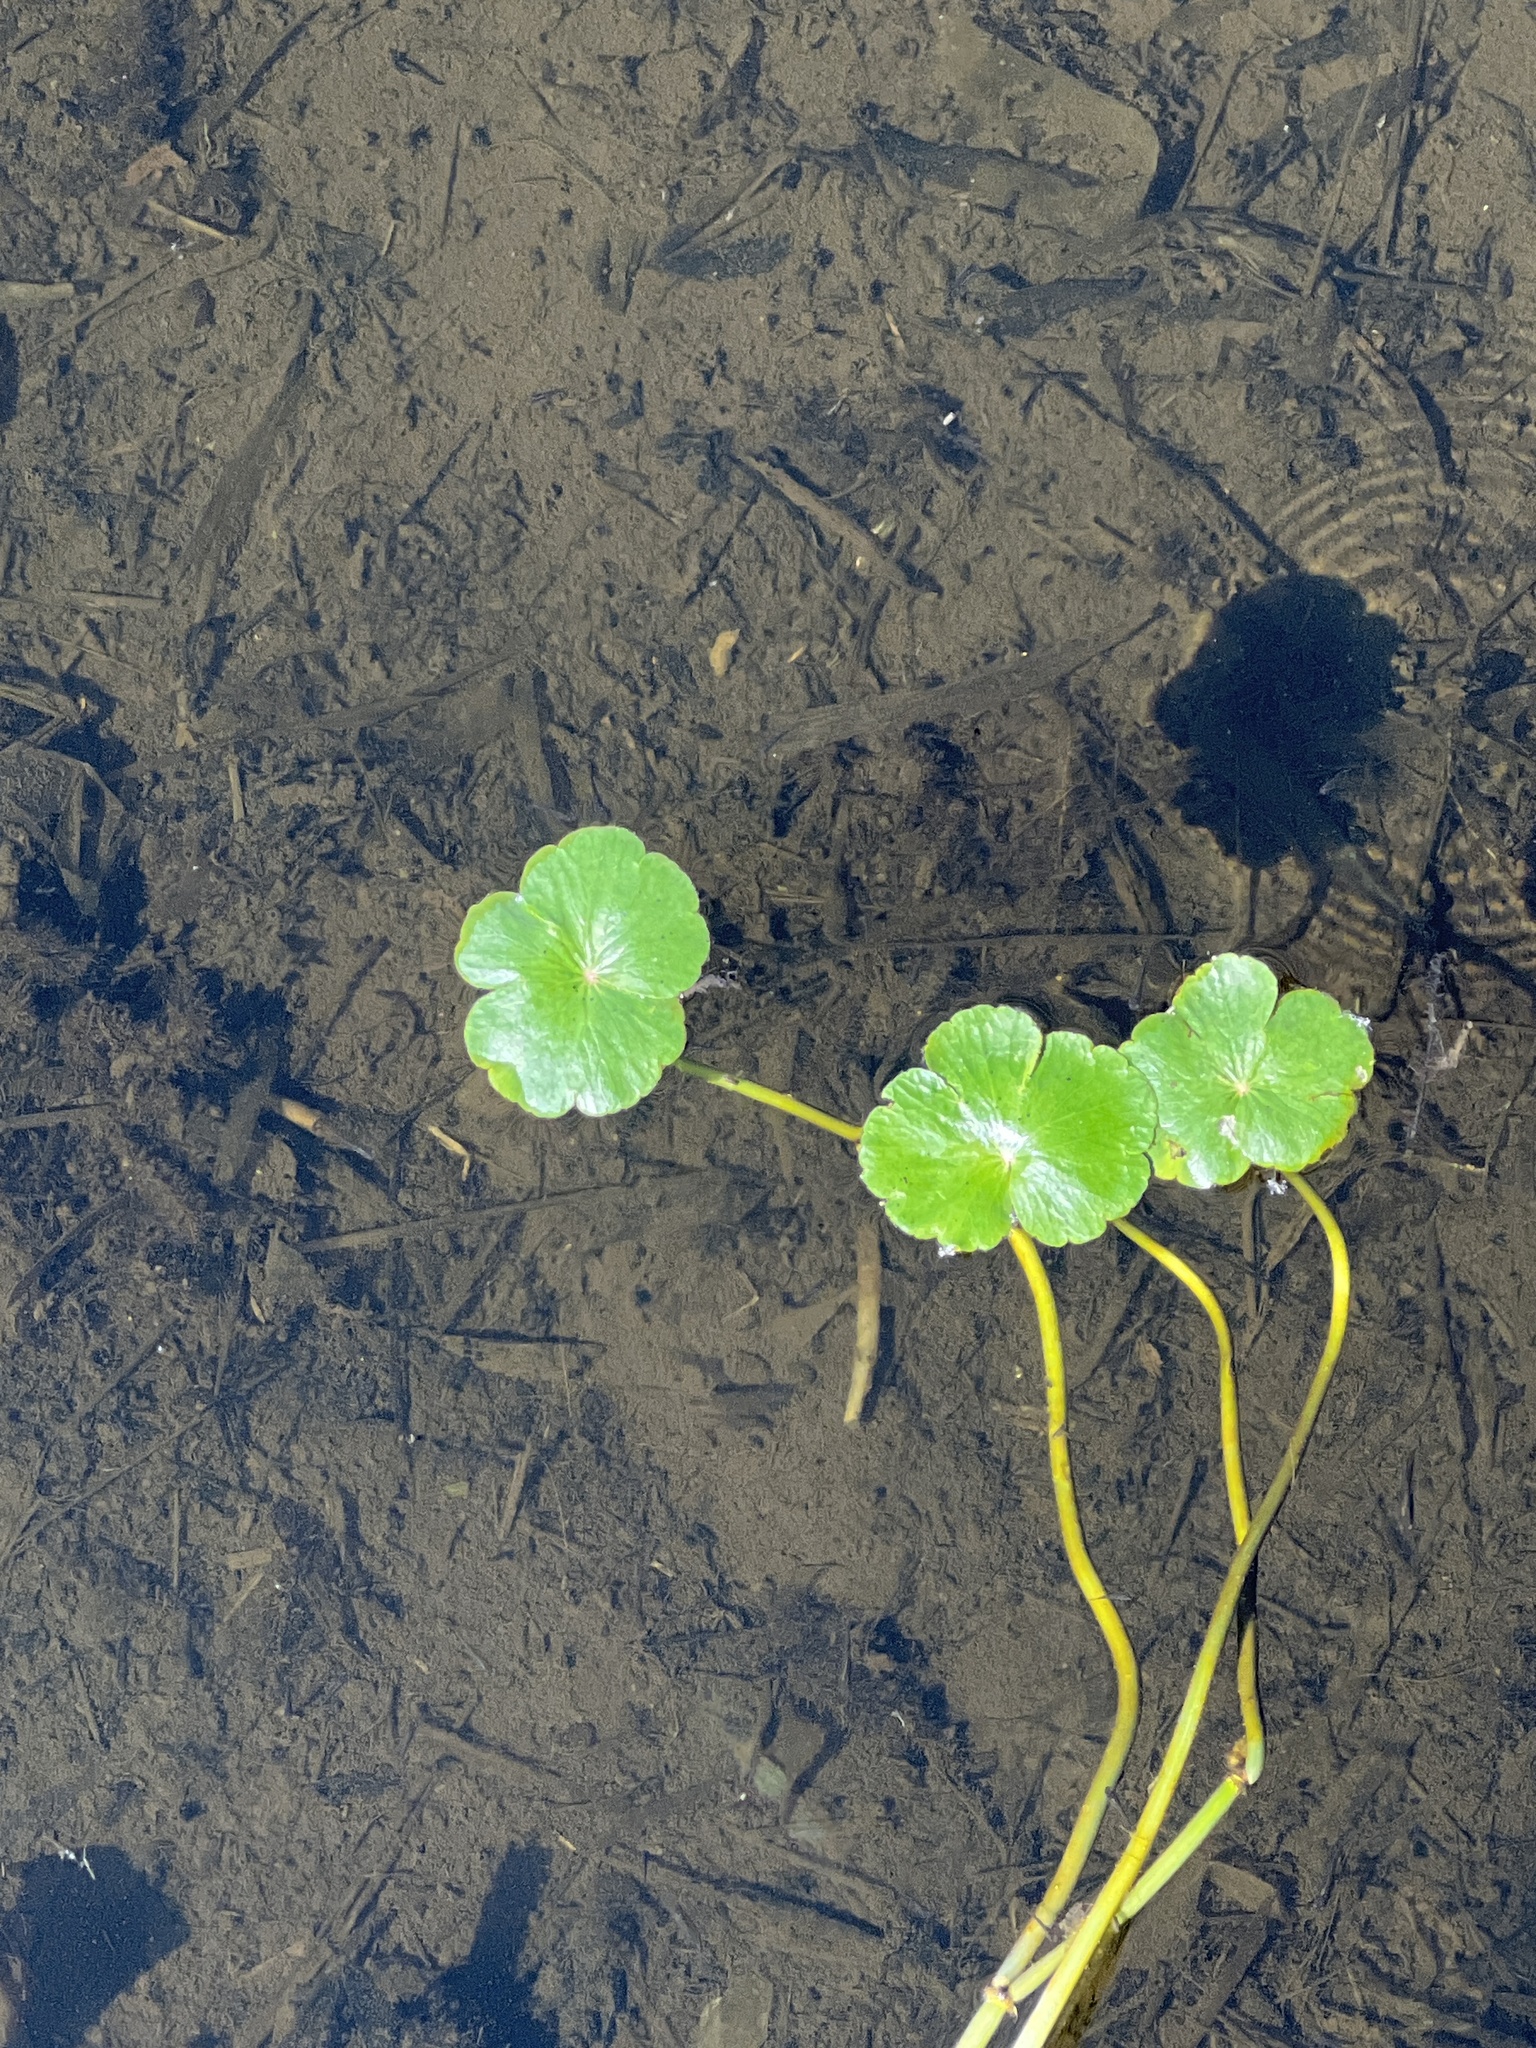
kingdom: Plantae
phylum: Tracheophyta
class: Magnoliopsida
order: Apiales
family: Araliaceae
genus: Hydrocotyle
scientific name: Hydrocotyle ranunculoides
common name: Floating pennywort
